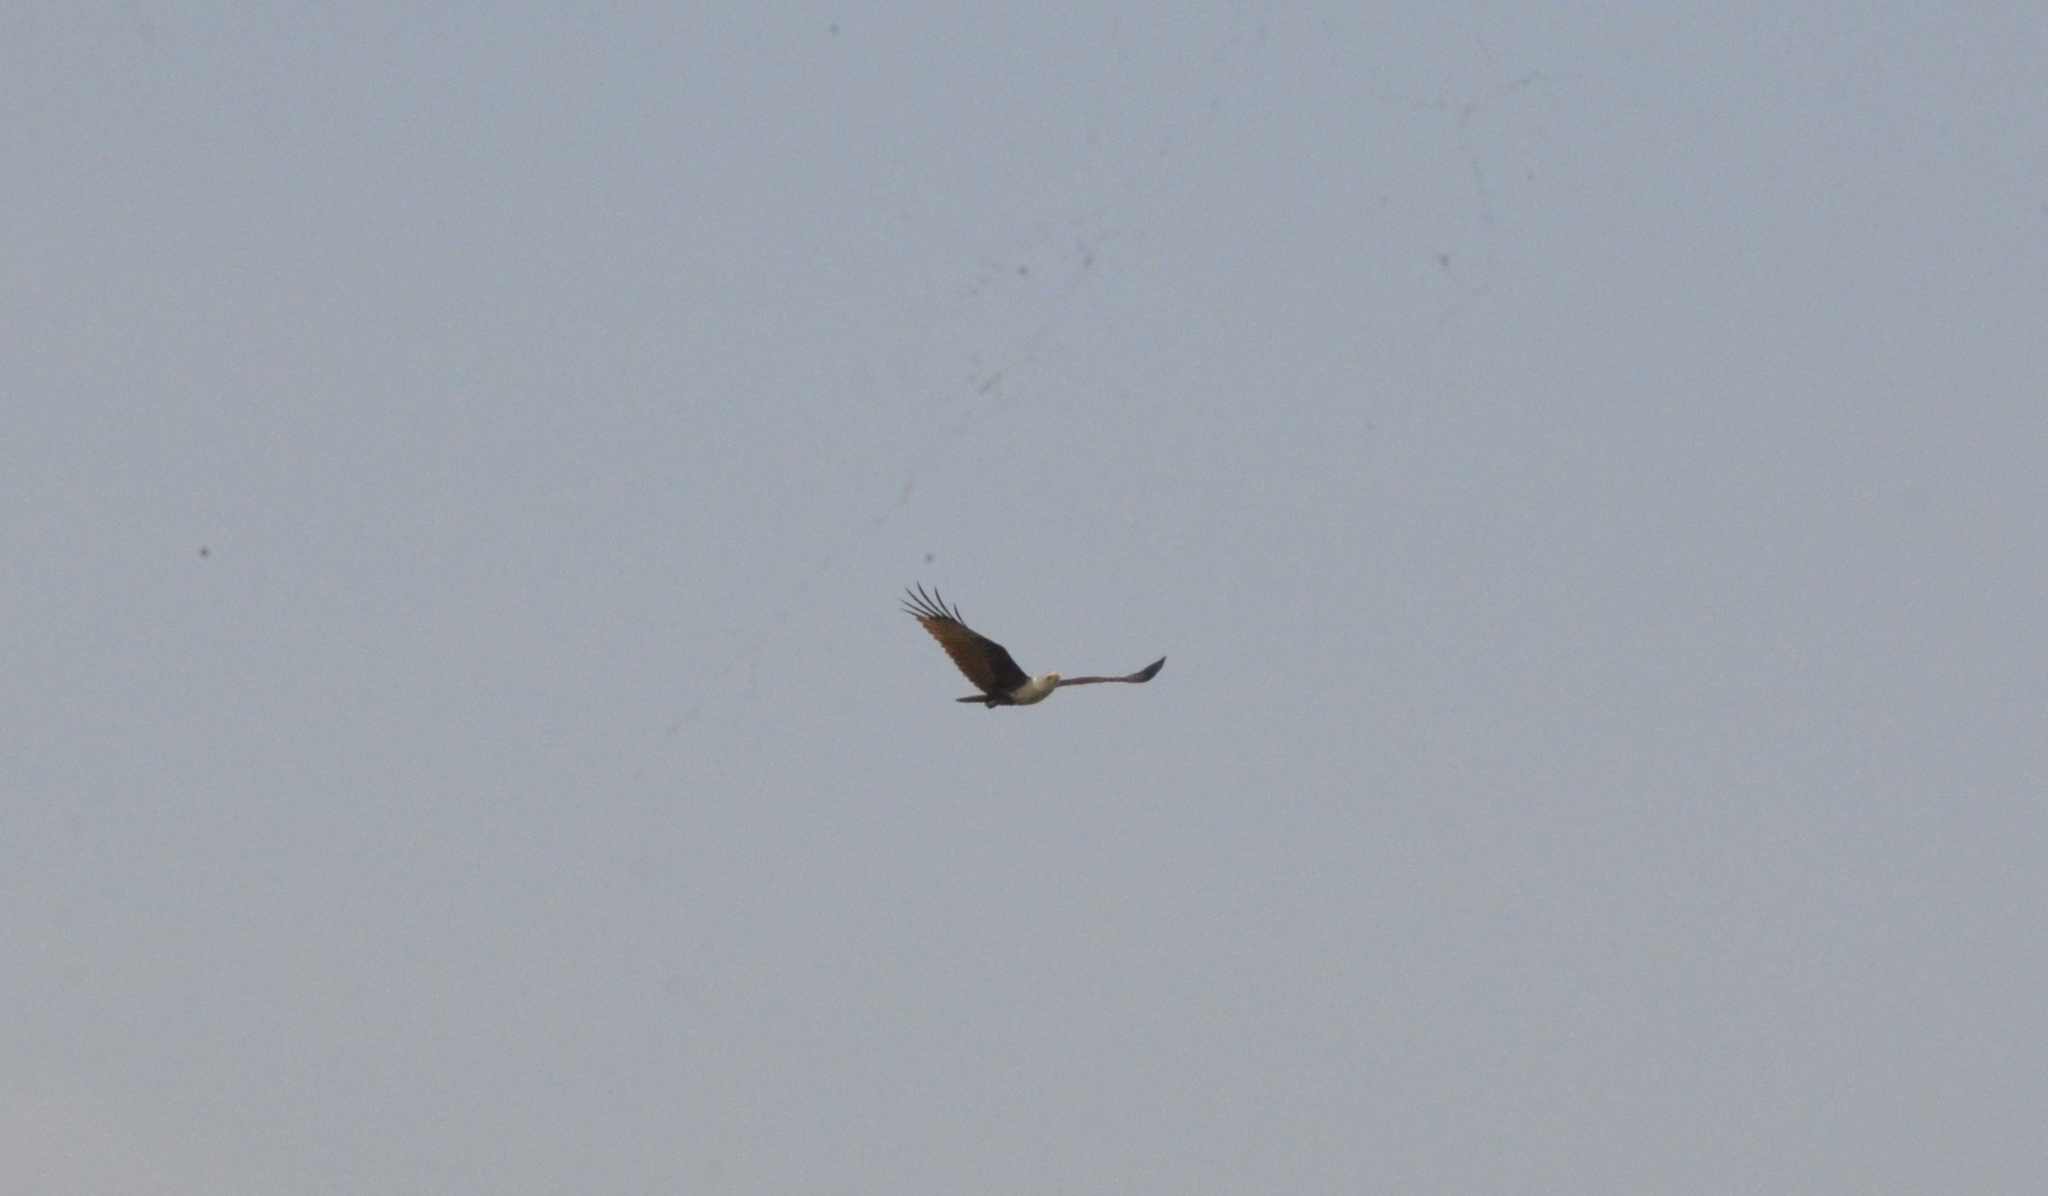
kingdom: Animalia
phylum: Chordata
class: Aves
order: Accipitriformes
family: Accipitridae
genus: Haliastur
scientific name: Haliastur indus
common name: Brahminy kite
